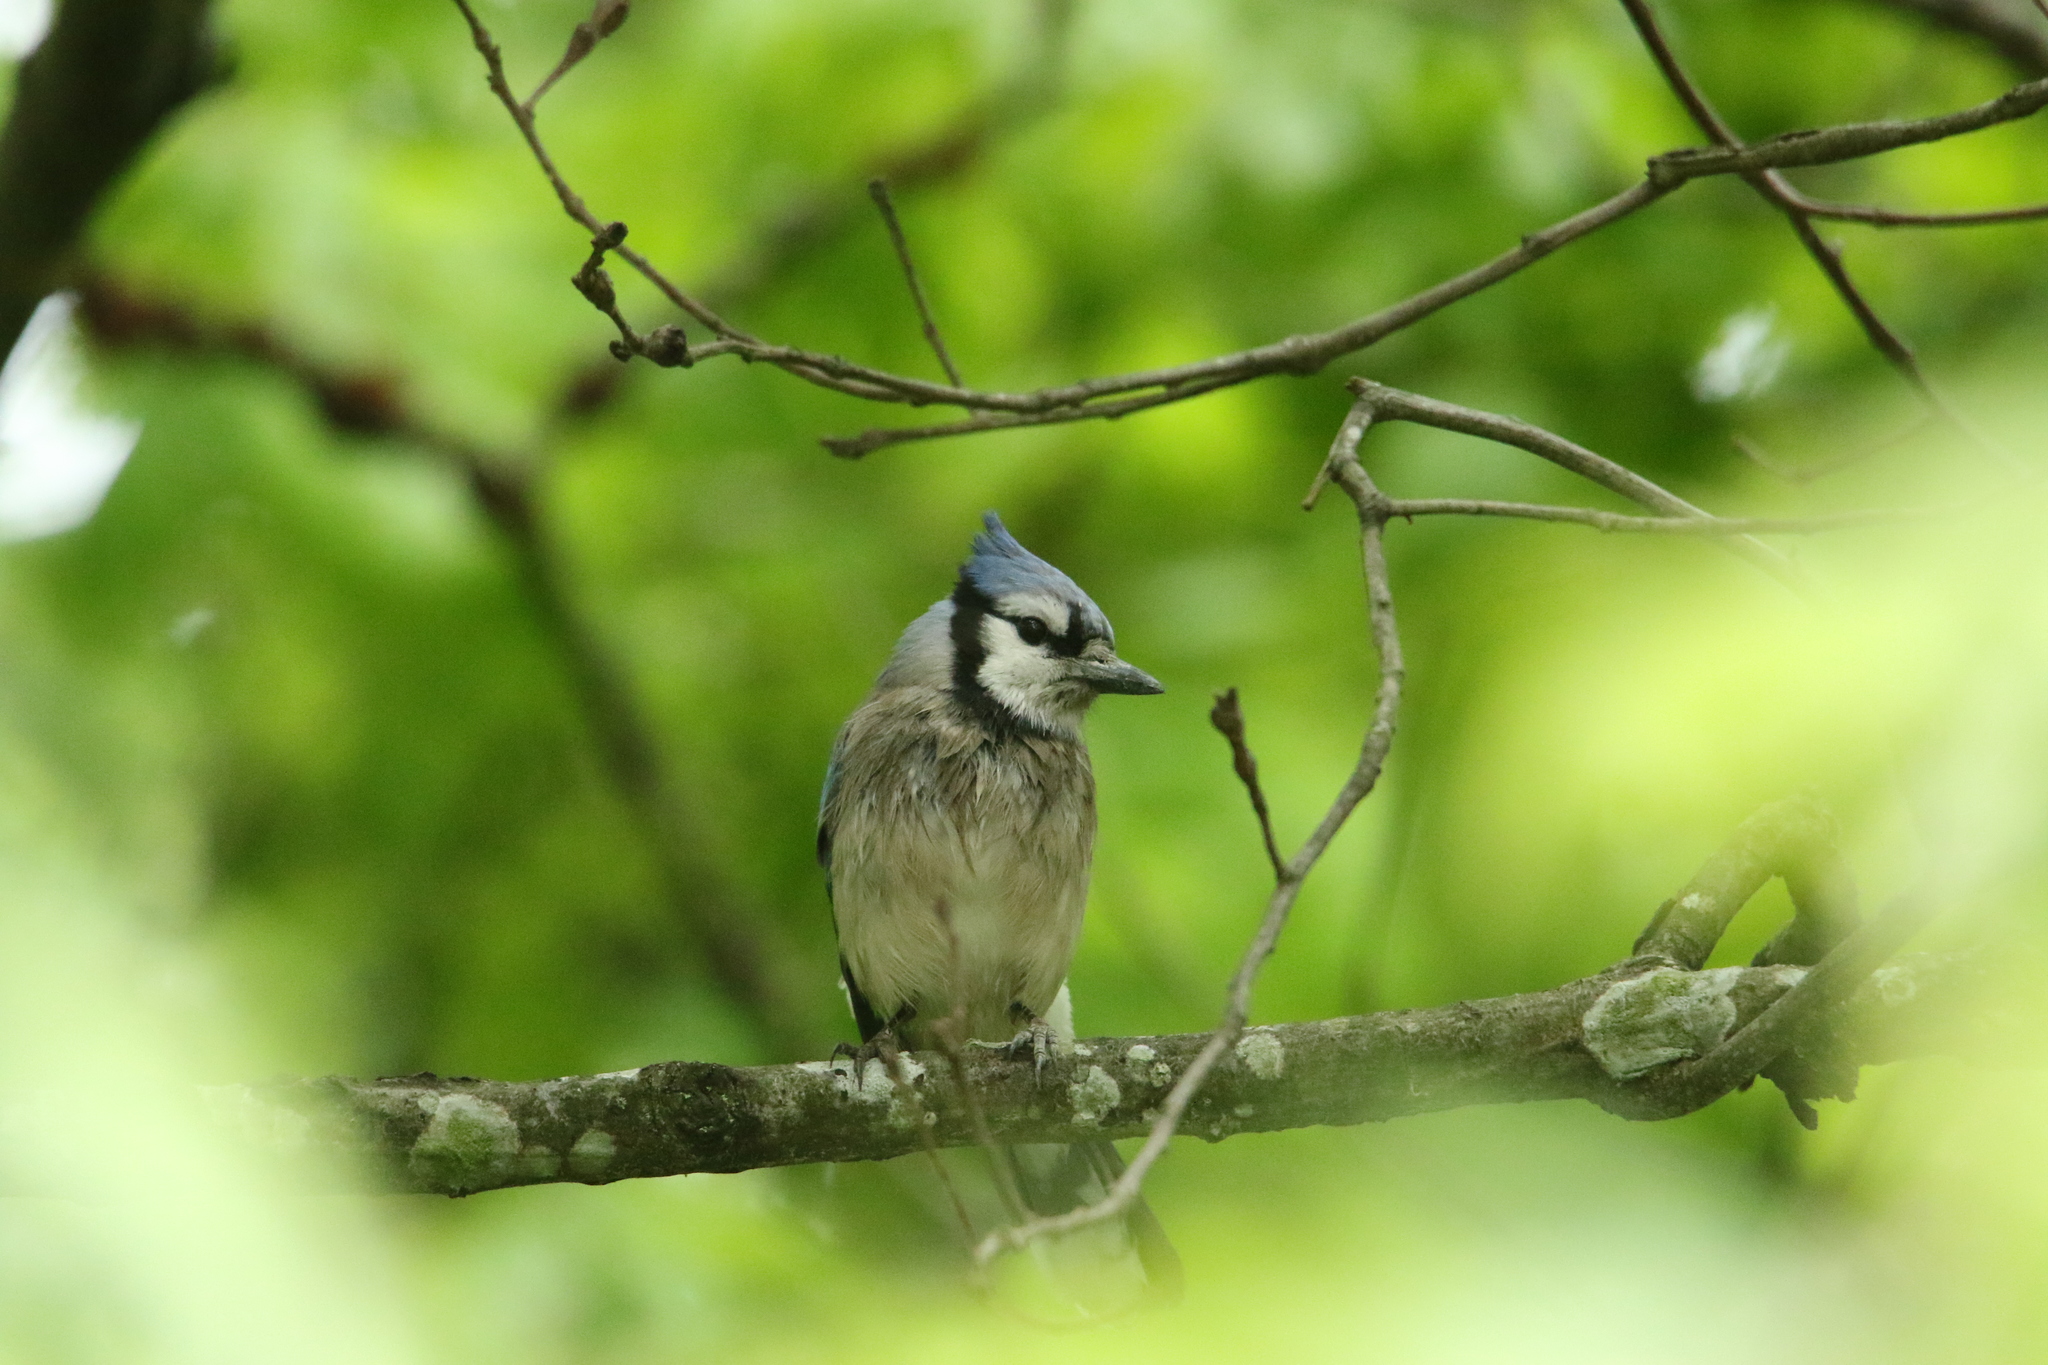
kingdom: Animalia
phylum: Chordata
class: Aves
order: Passeriformes
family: Corvidae
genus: Cyanocitta
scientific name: Cyanocitta cristata
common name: Blue jay
